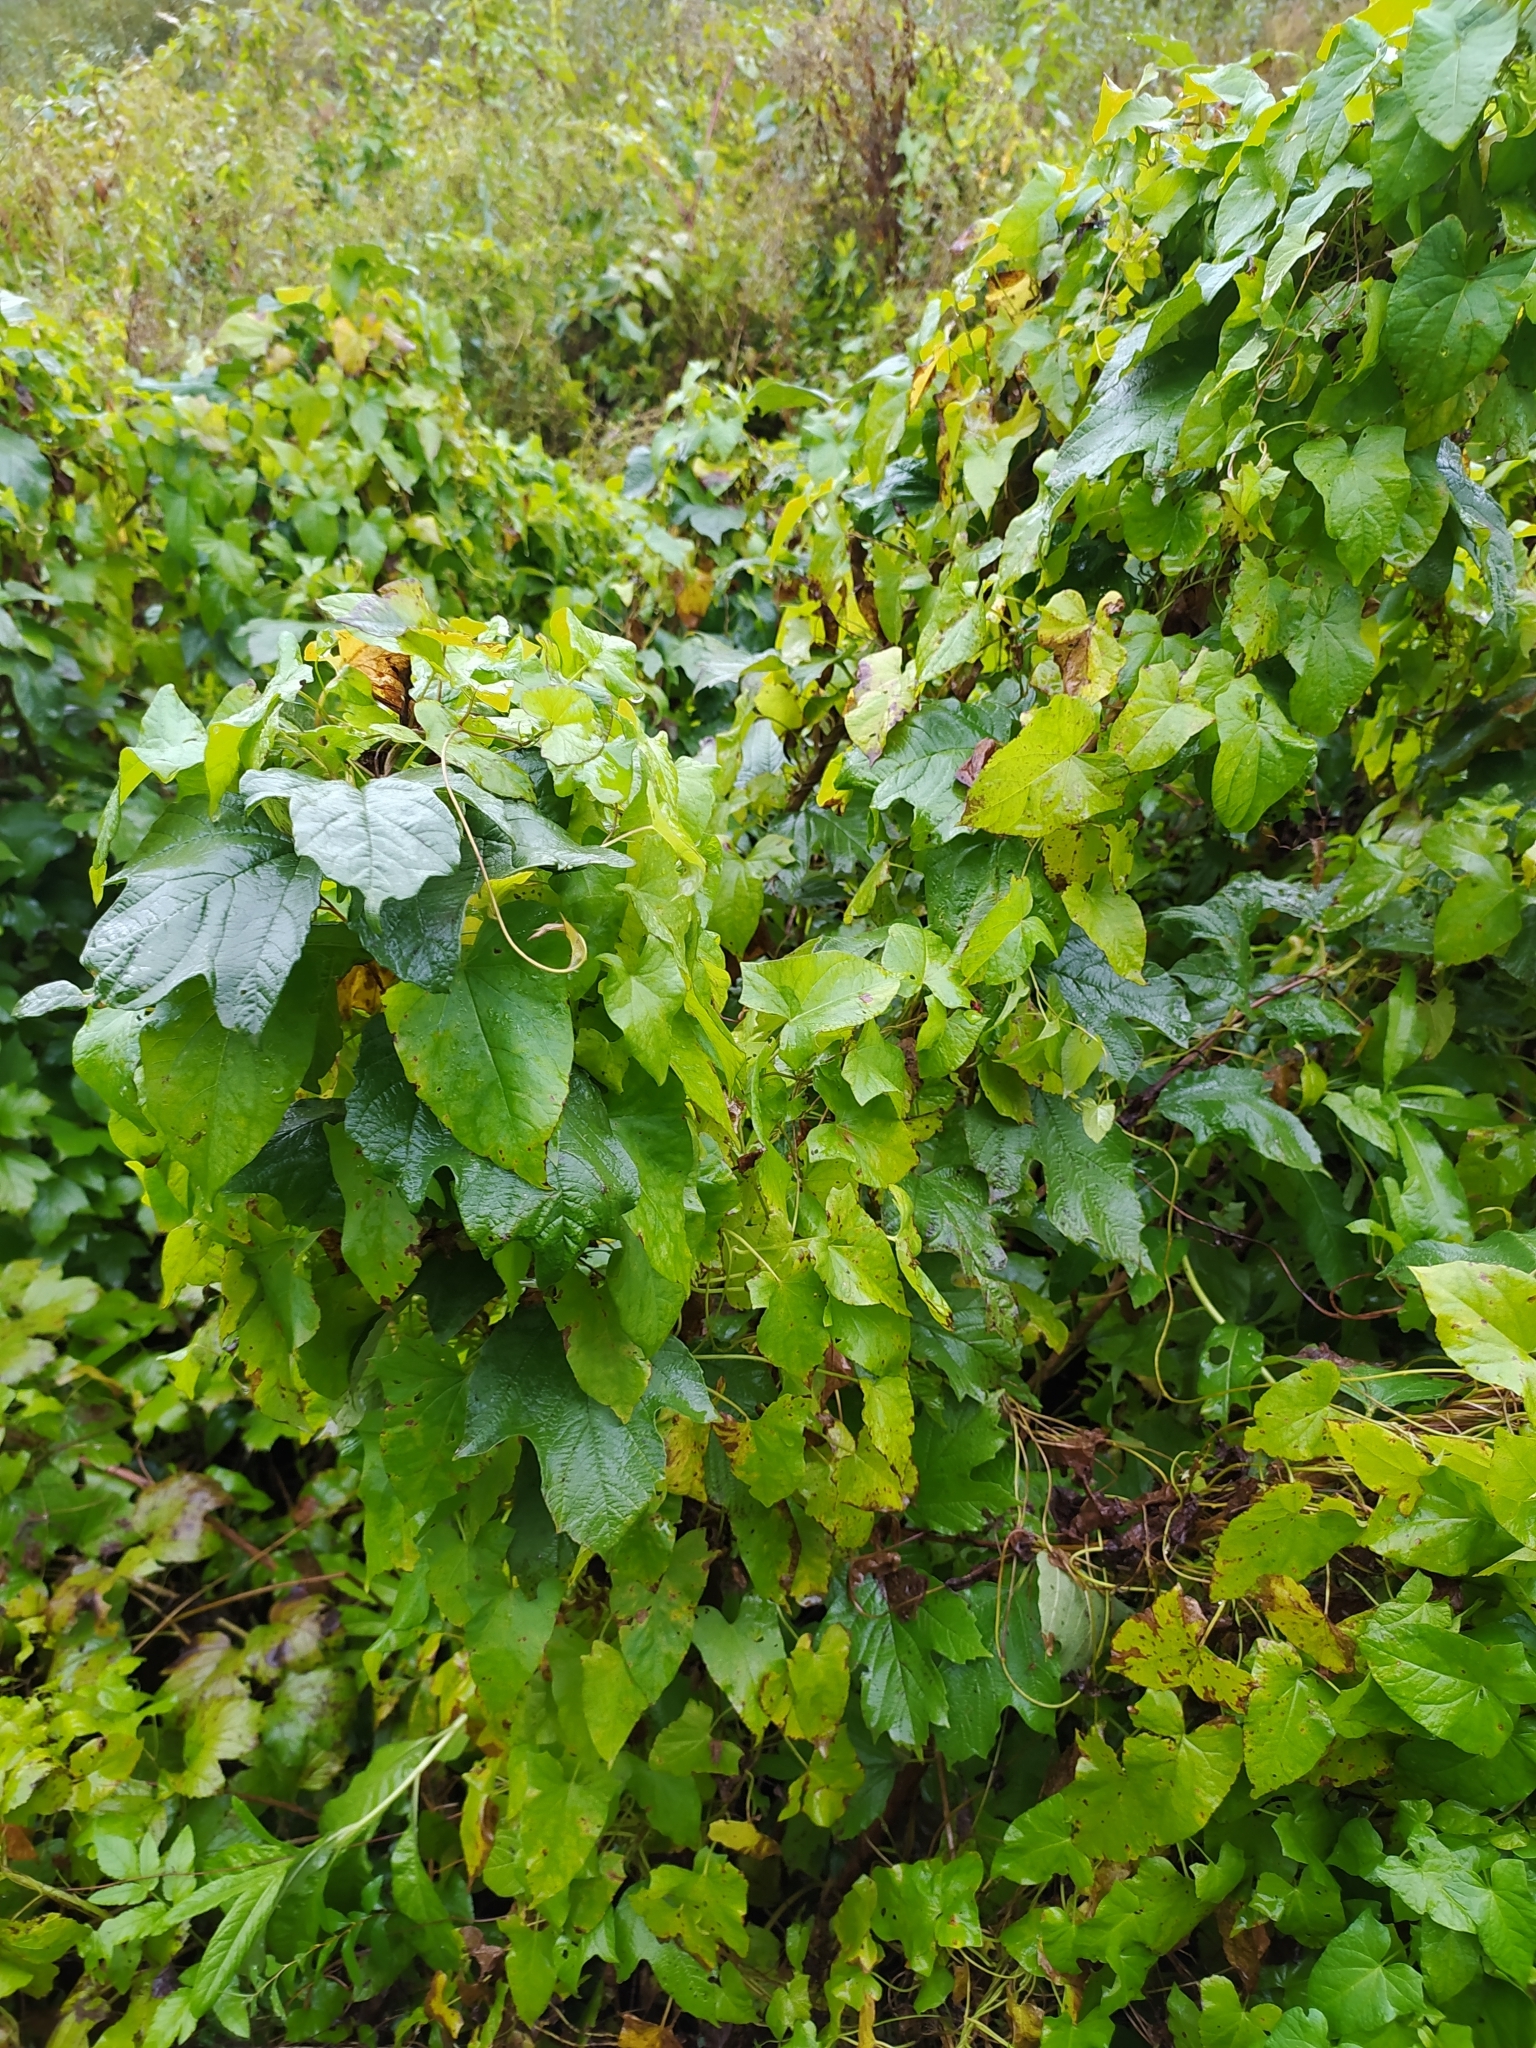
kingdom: Plantae
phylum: Tracheophyta
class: Magnoliopsida
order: Solanales
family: Convolvulaceae
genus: Calystegia
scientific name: Calystegia
